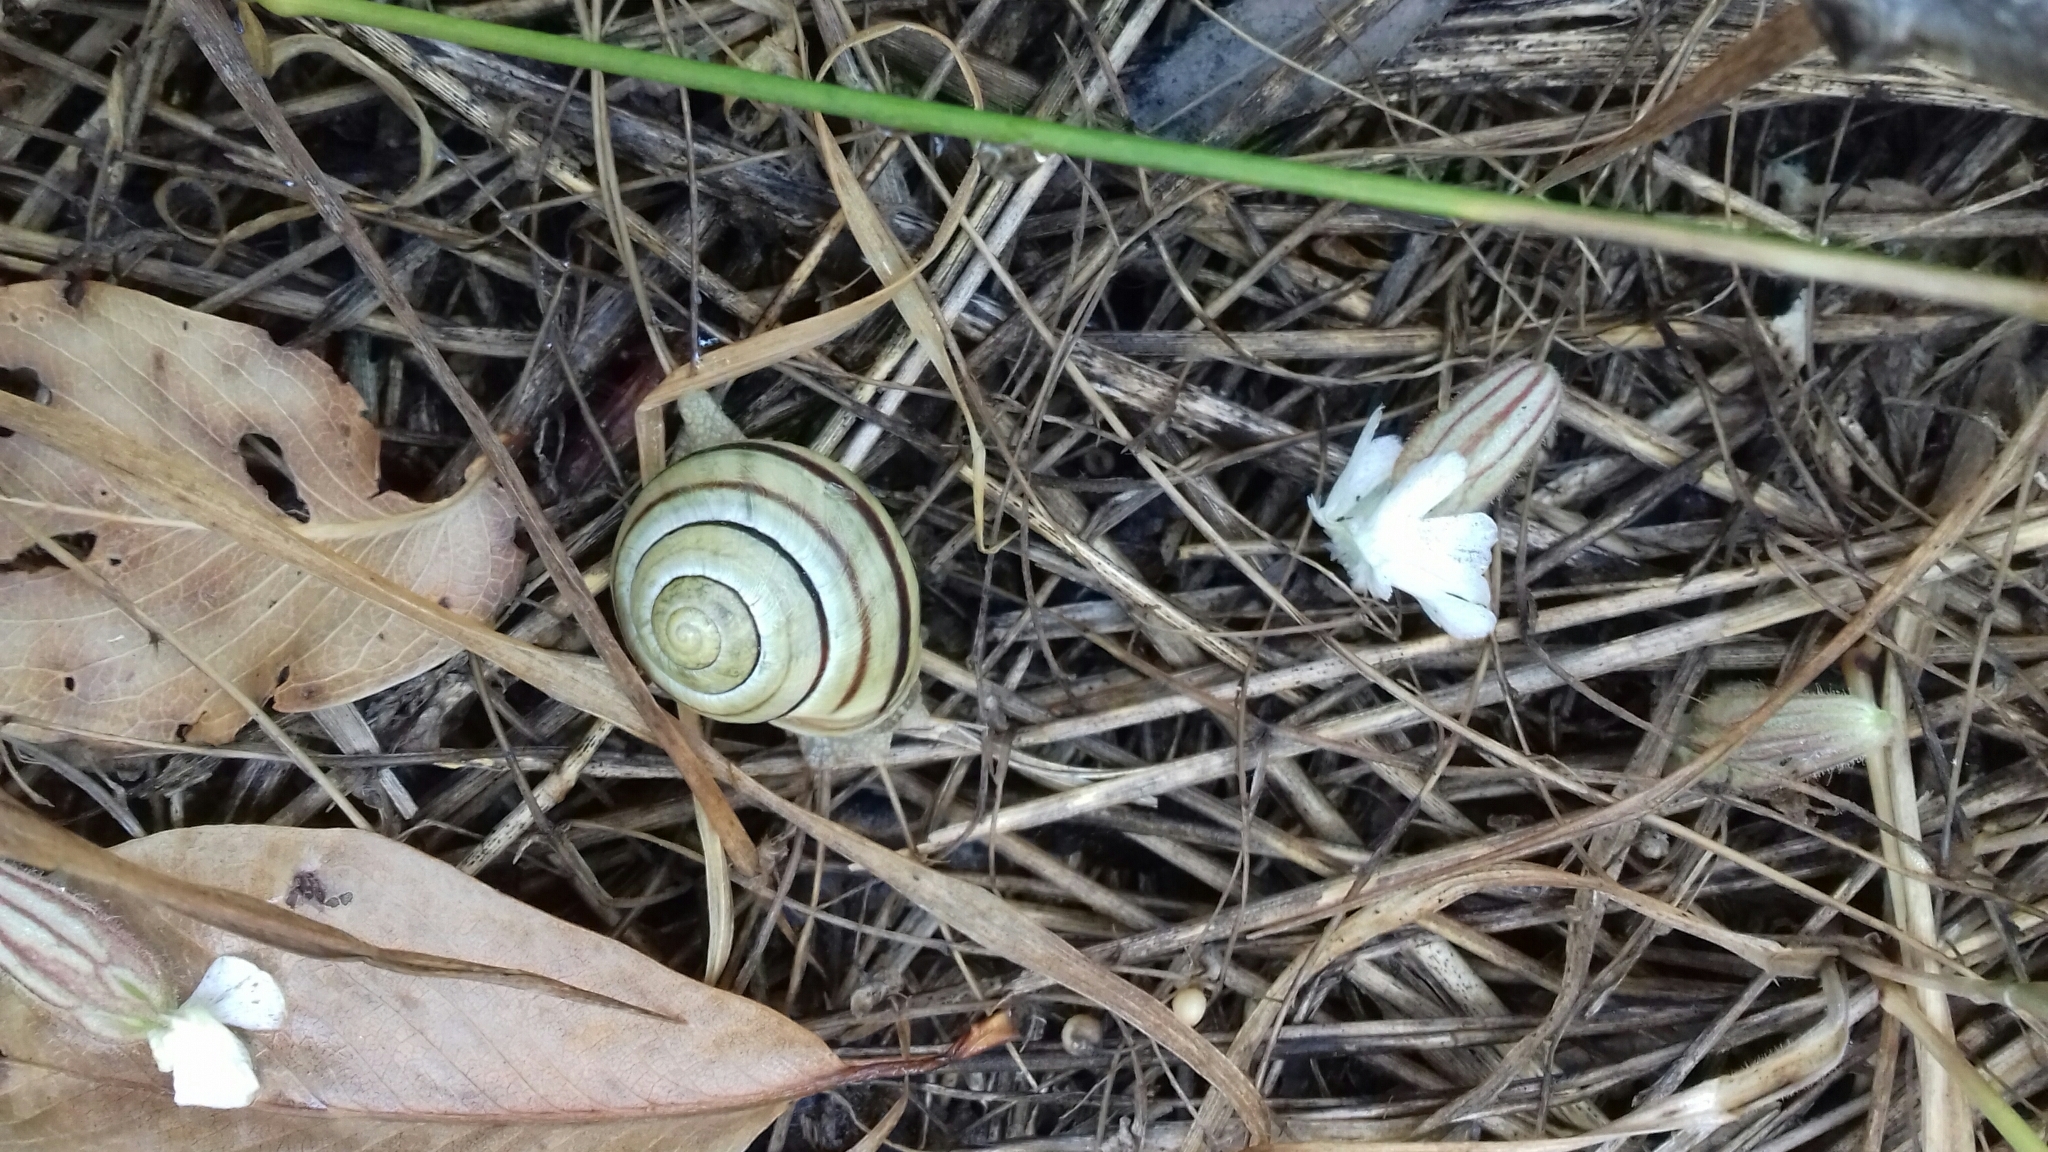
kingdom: Animalia
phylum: Mollusca
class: Gastropoda
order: Stylommatophora
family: Helicidae
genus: Cepaea
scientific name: Cepaea hortensis
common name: White-lip gardensnail
